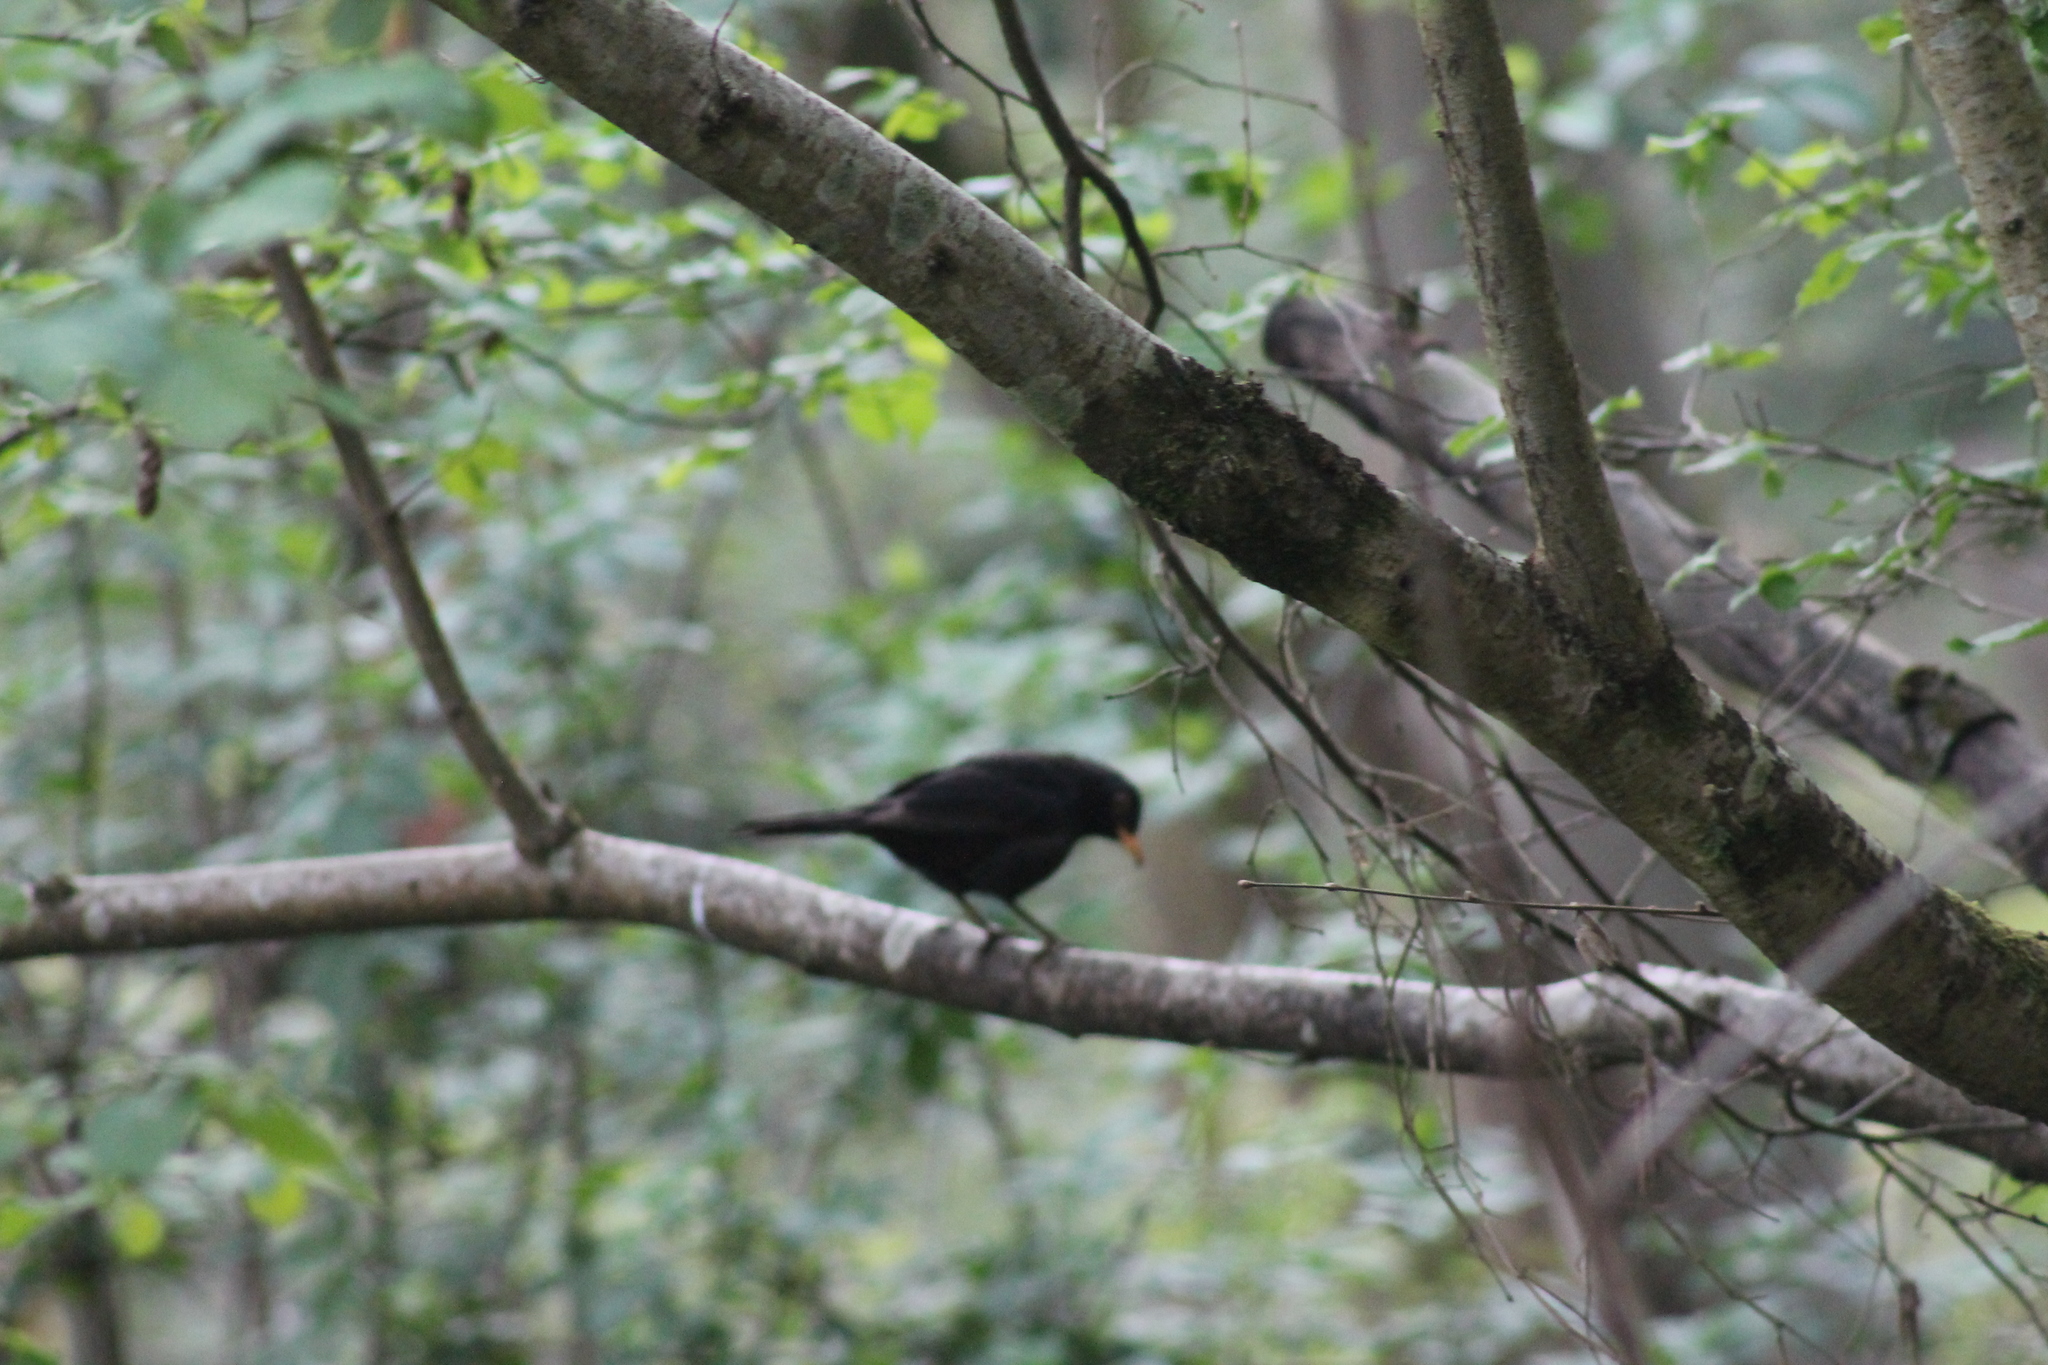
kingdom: Animalia
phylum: Chordata
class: Aves
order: Passeriformes
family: Turdidae
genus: Turdus
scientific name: Turdus merula
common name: Common blackbird
